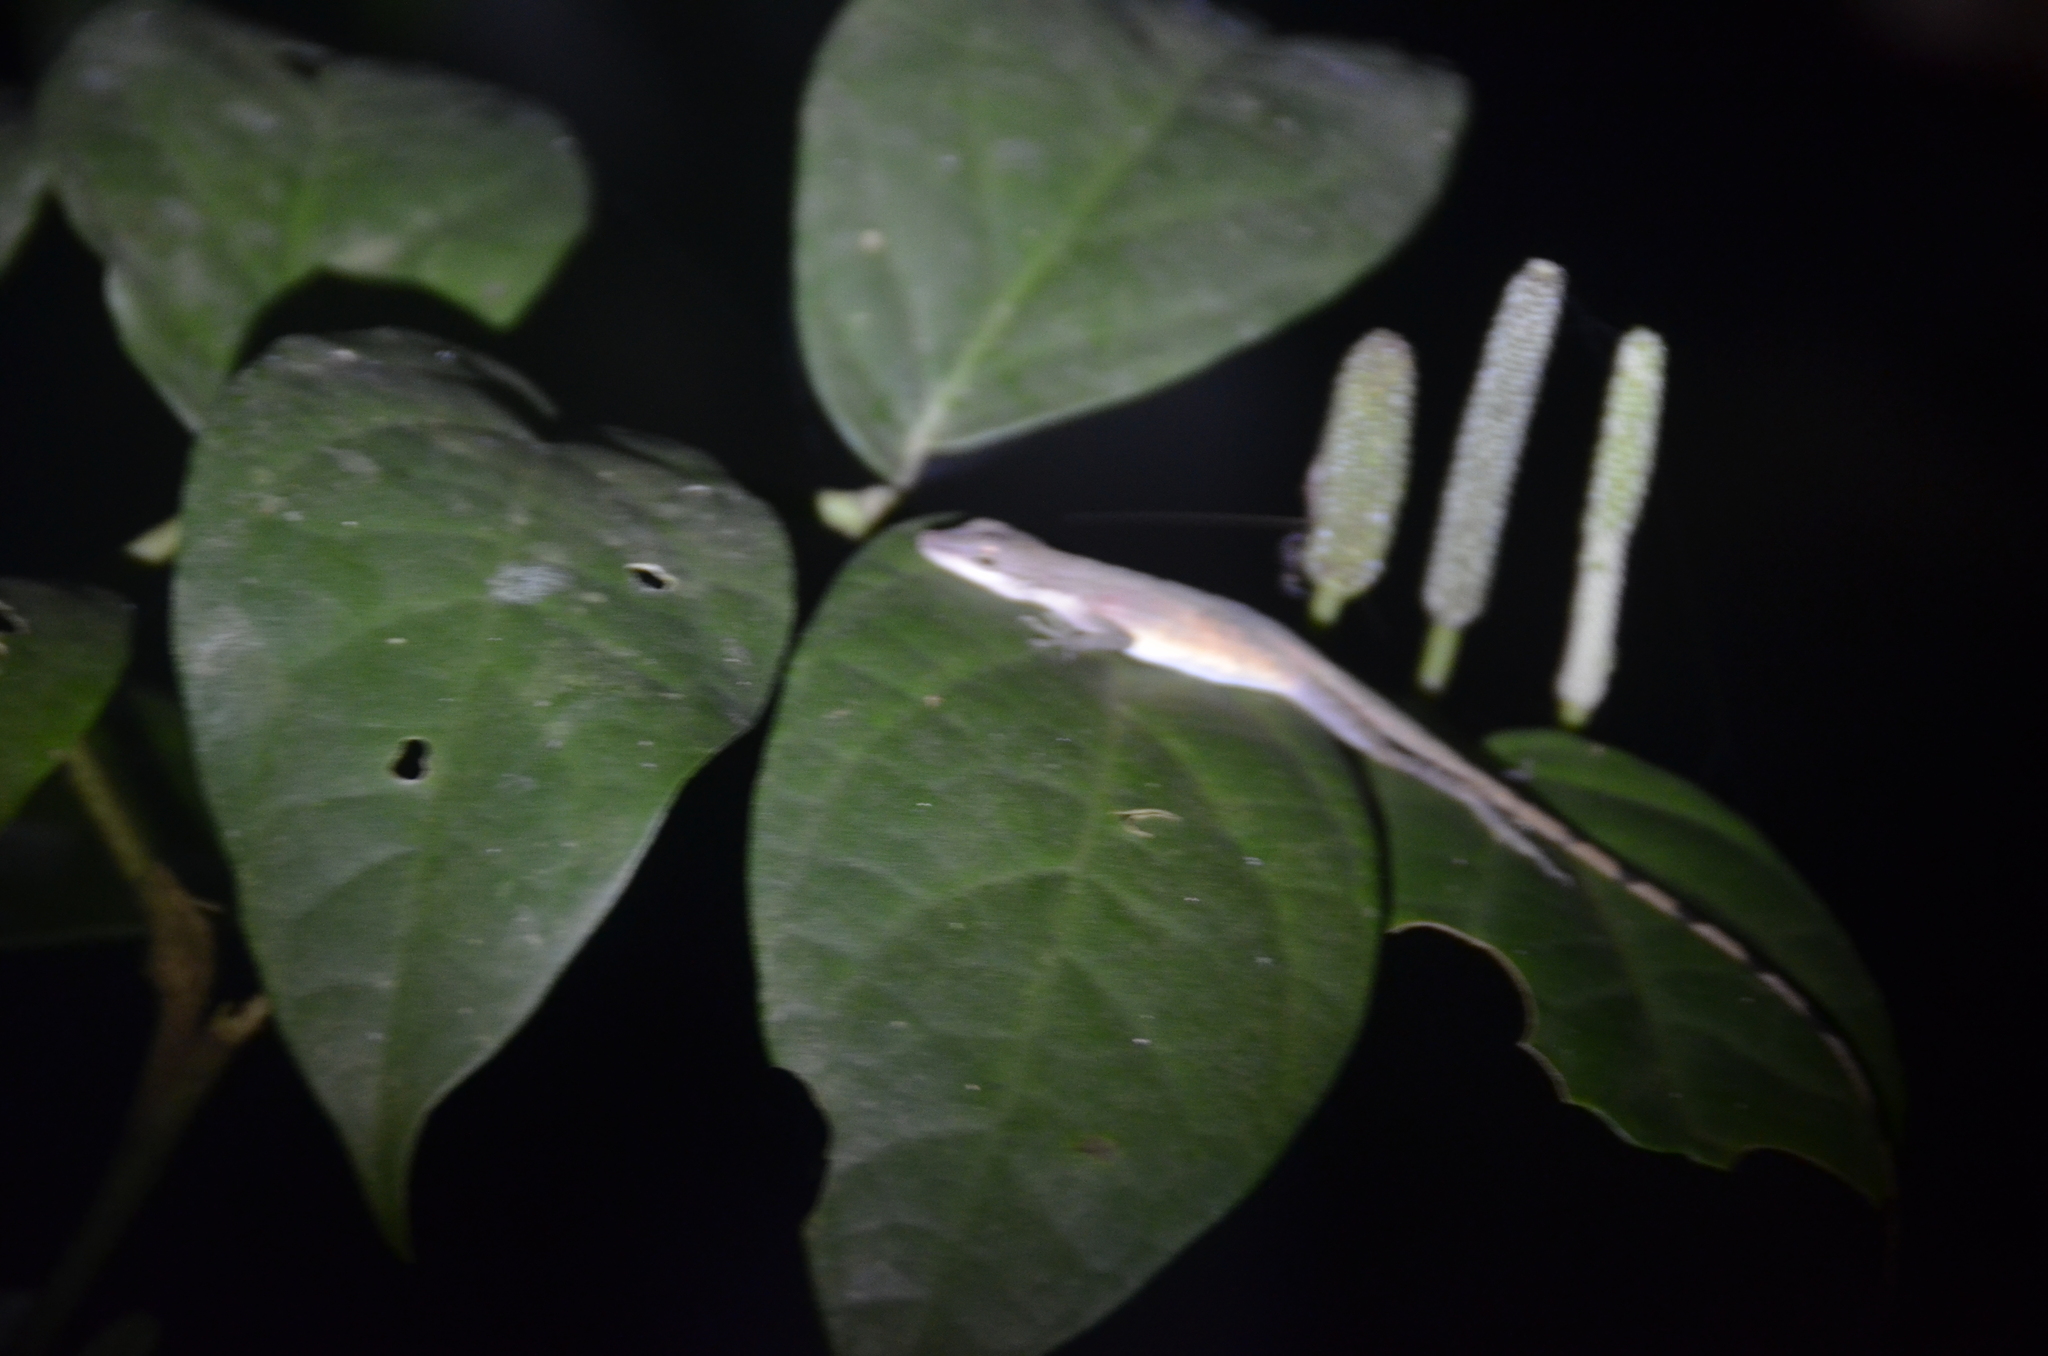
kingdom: Animalia
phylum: Chordata
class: Squamata
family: Dactyloidae
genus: Anolis
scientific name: Anolis limifrons
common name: Border anole
